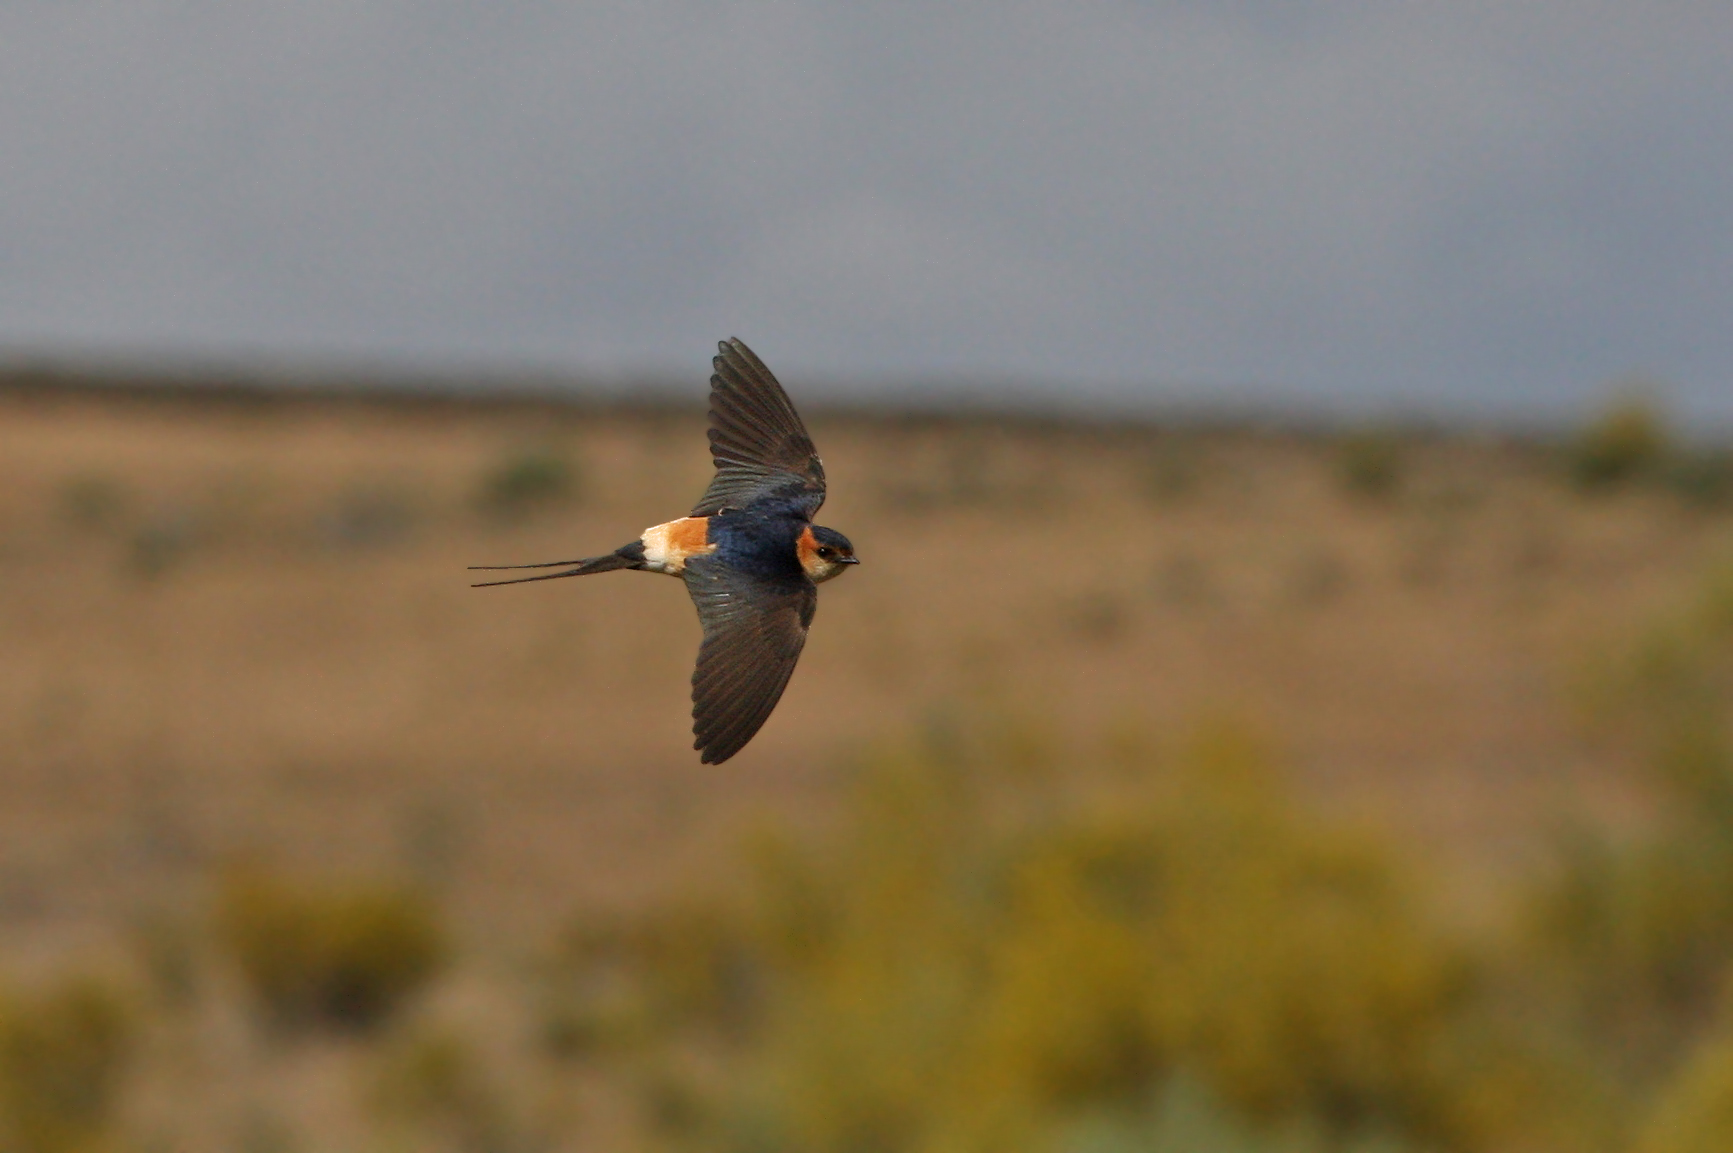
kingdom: Animalia
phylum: Chordata
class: Aves
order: Passeriformes
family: Hirundinidae
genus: Cecropis
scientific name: Cecropis daurica
